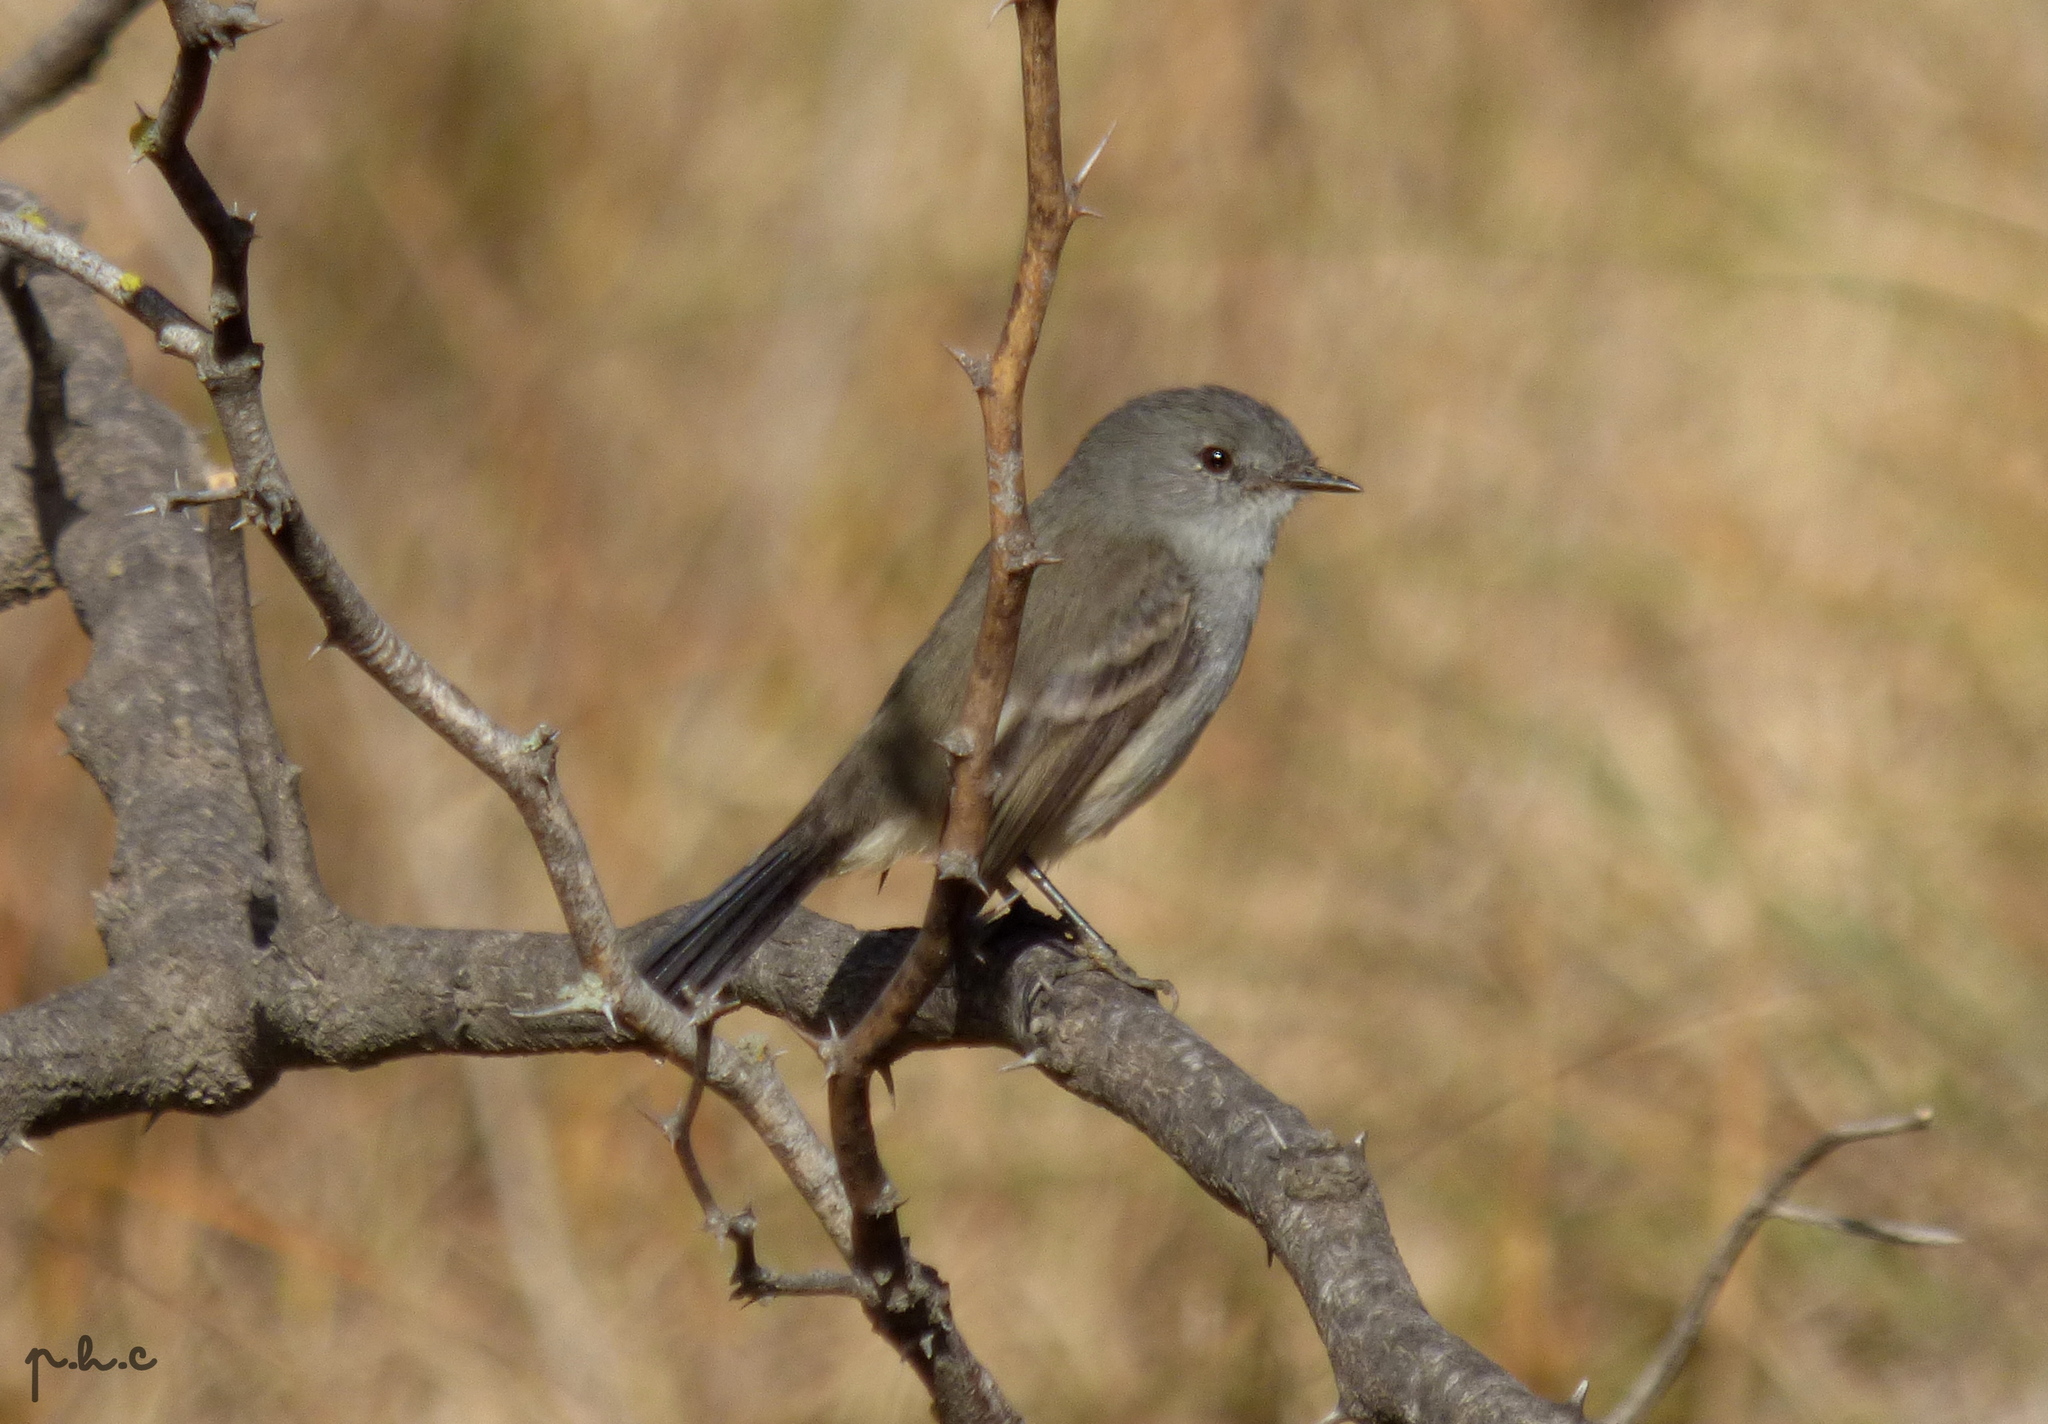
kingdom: Animalia
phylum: Chordata
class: Aves
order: Passeriformes
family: Tyrannidae
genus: Serpophaga
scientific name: Serpophaga nigricans
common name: Sooty tyrannulet
